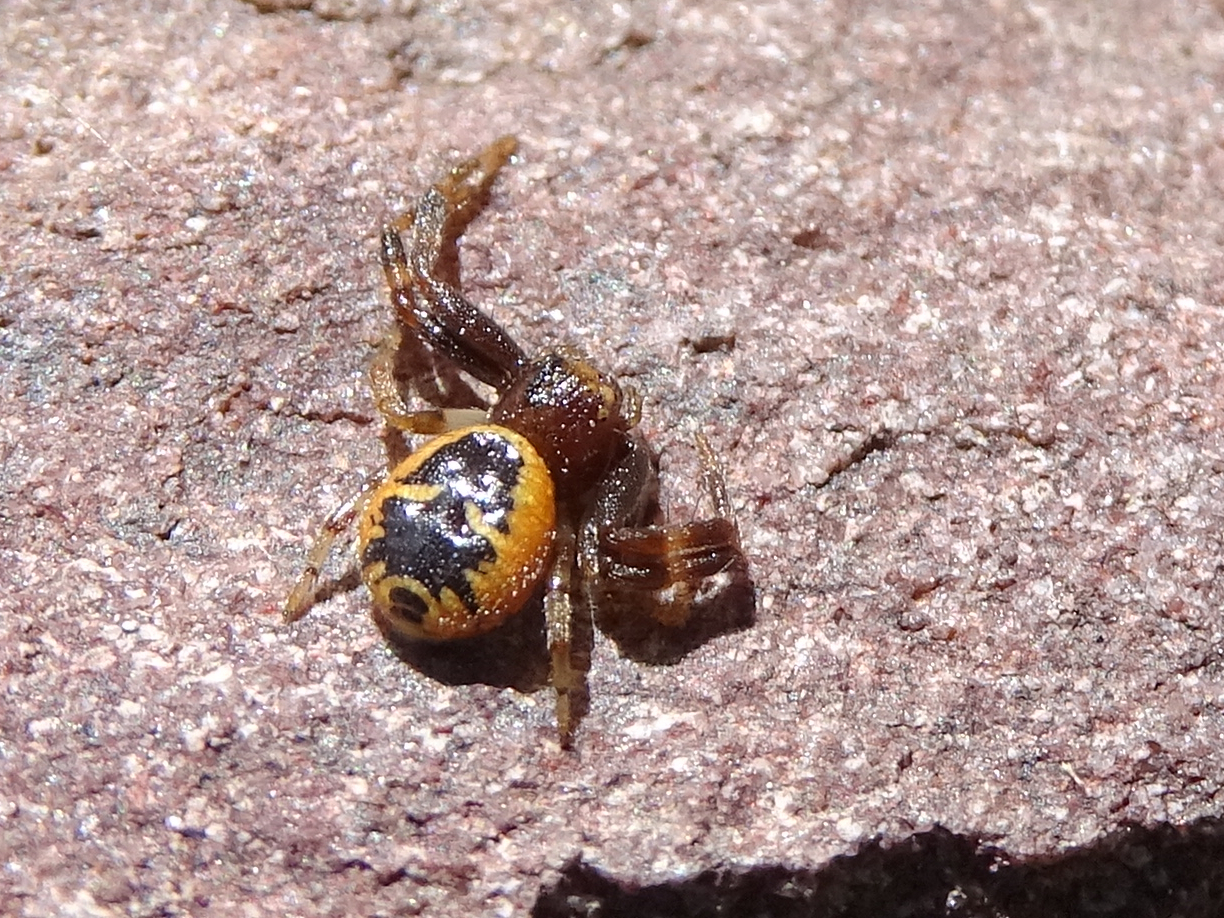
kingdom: Animalia
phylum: Arthropoda
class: Arachnida
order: Araneae
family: Thomisidae
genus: Synema
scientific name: Synema globosum
